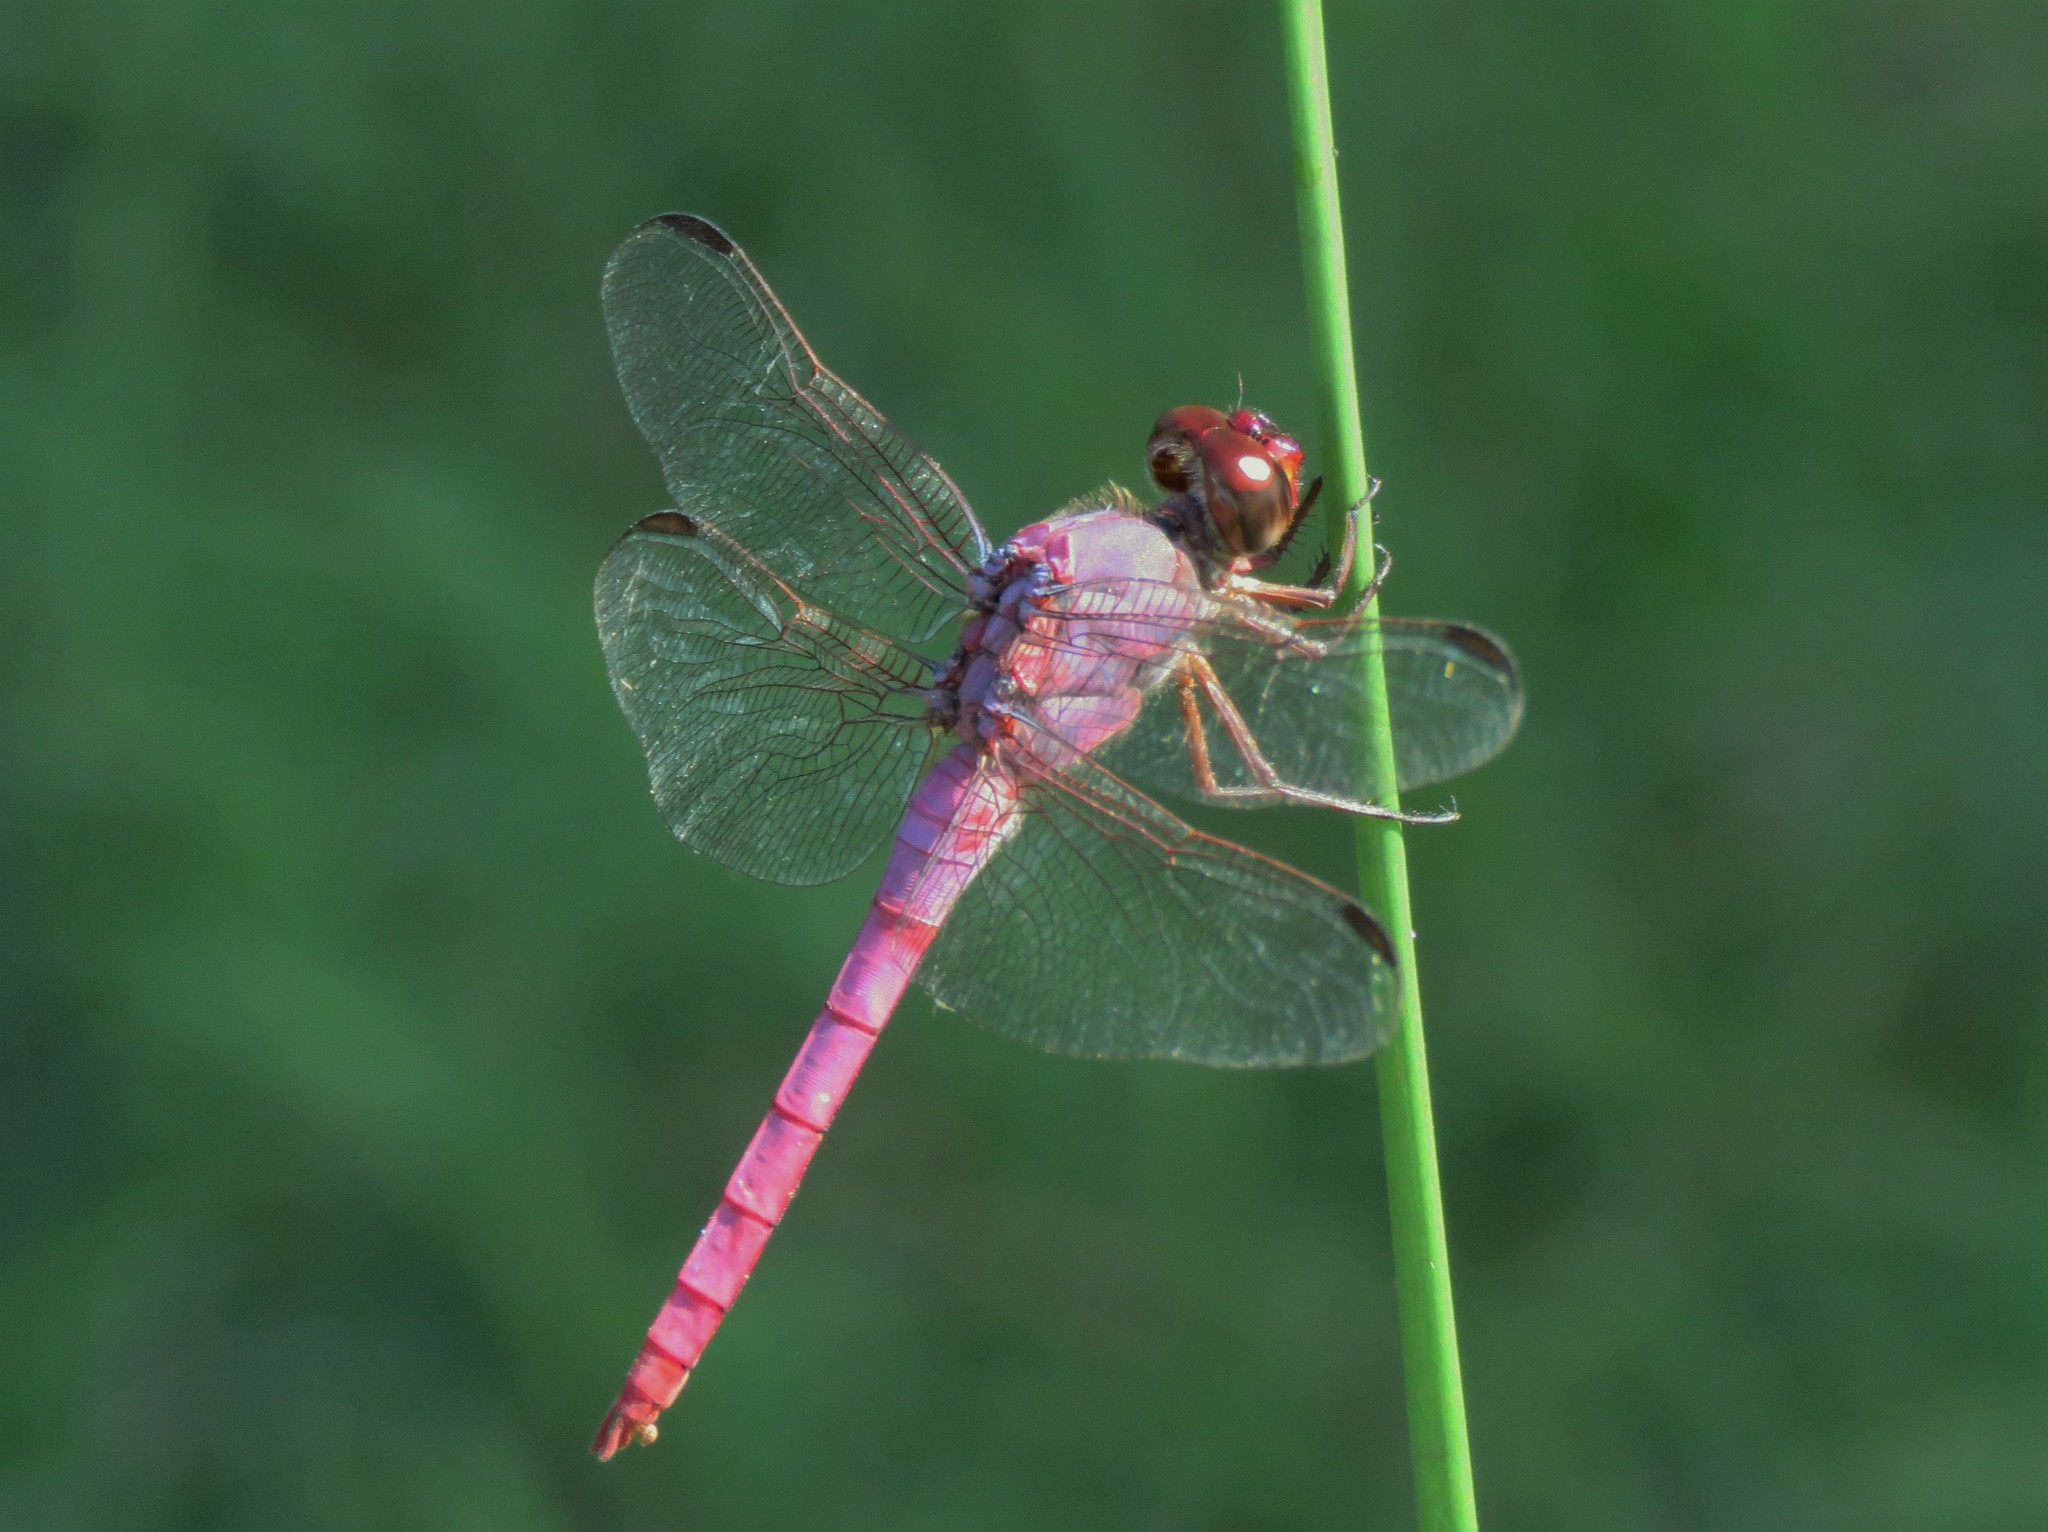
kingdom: Animalia
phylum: Arthropoda
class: Insecta
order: Odonata
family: Libellulidae
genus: Orthemis
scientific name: Orthemis ferruginea
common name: Roseate skimmer
